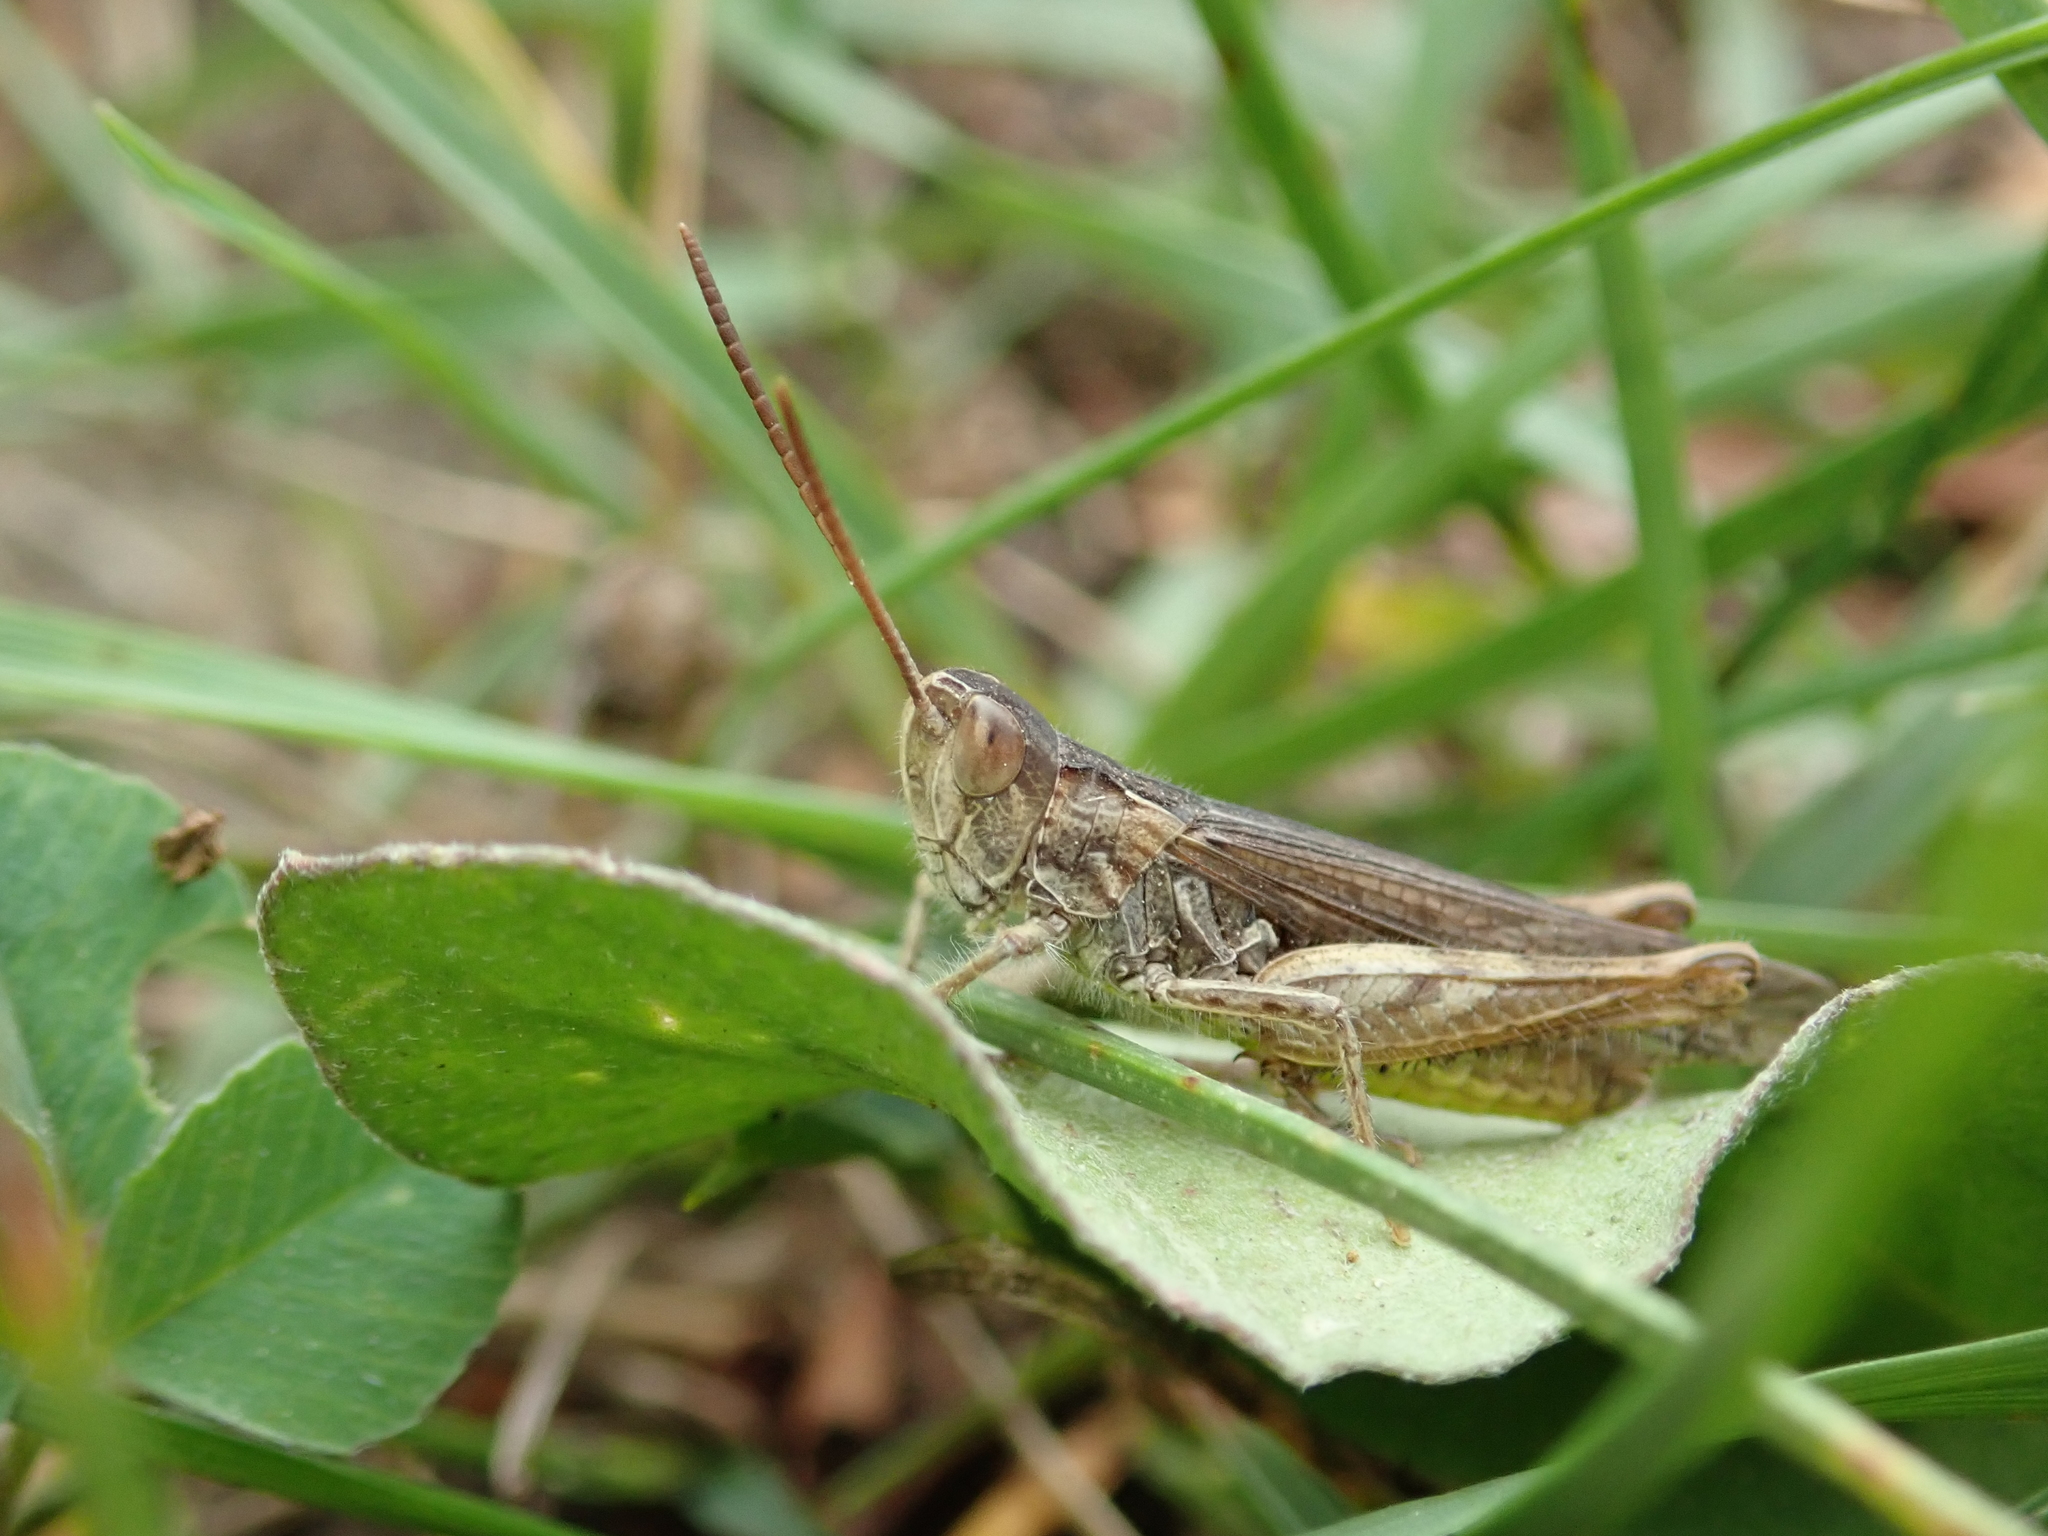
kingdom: Animalia
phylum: Arthropoda
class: Insecta
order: Orthoptera
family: Acrididae
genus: Chorthippus
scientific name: Chorthippus mollis
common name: Lesser field grasshopper
